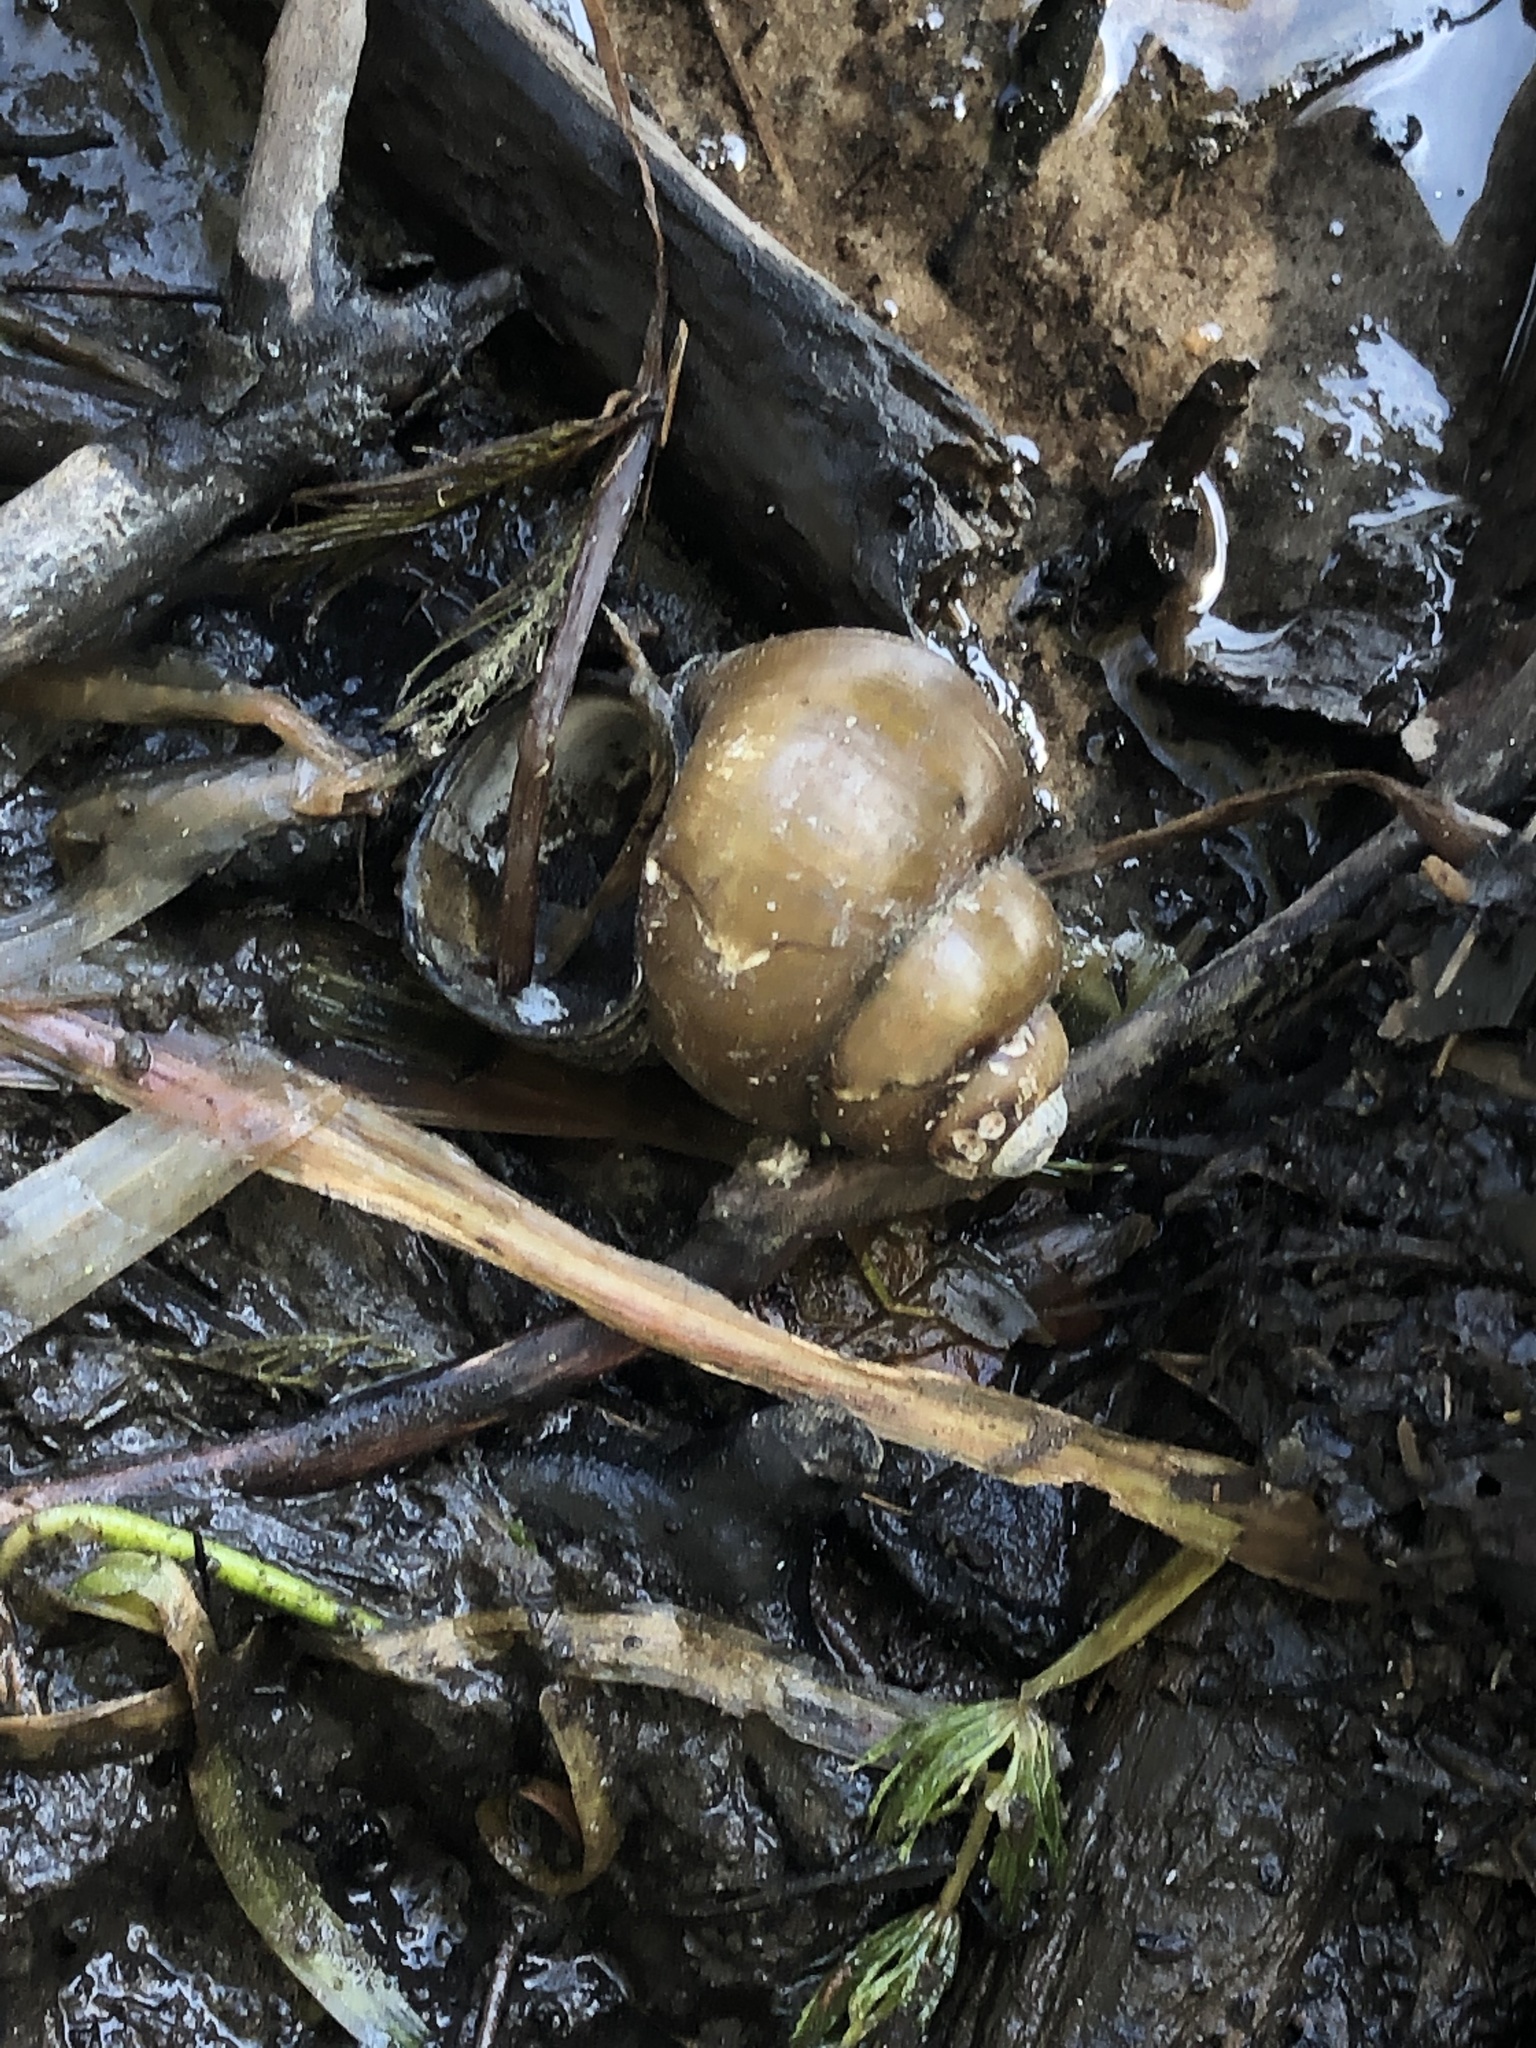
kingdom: Animalia
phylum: Mollusca
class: Gastropoda
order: Architaenioglossa
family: Viviparidae
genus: Cipangopaludina
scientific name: Cipangopaludina chinensis
